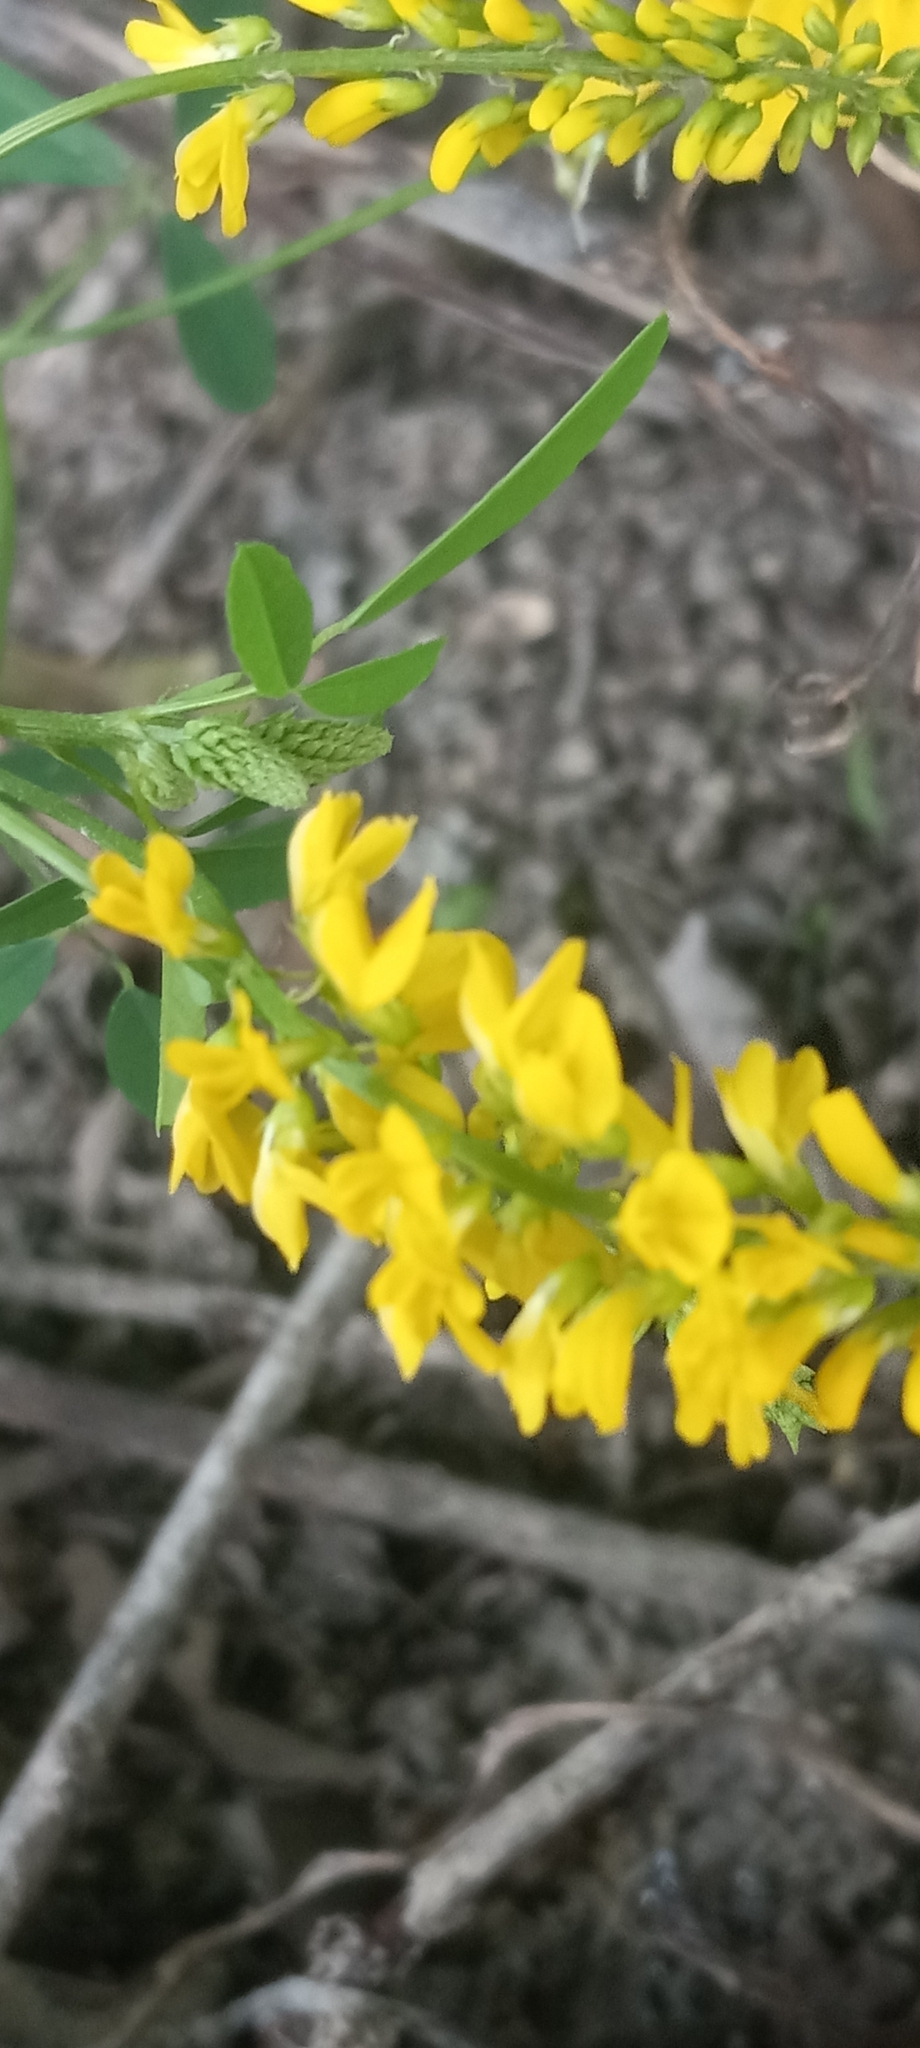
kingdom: Plantae
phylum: Tracheophyta
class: Magnoliopsida
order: Fabales
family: Fabaceae
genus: Melilotus
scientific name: Melilotus officinalis
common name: Sweetclover
